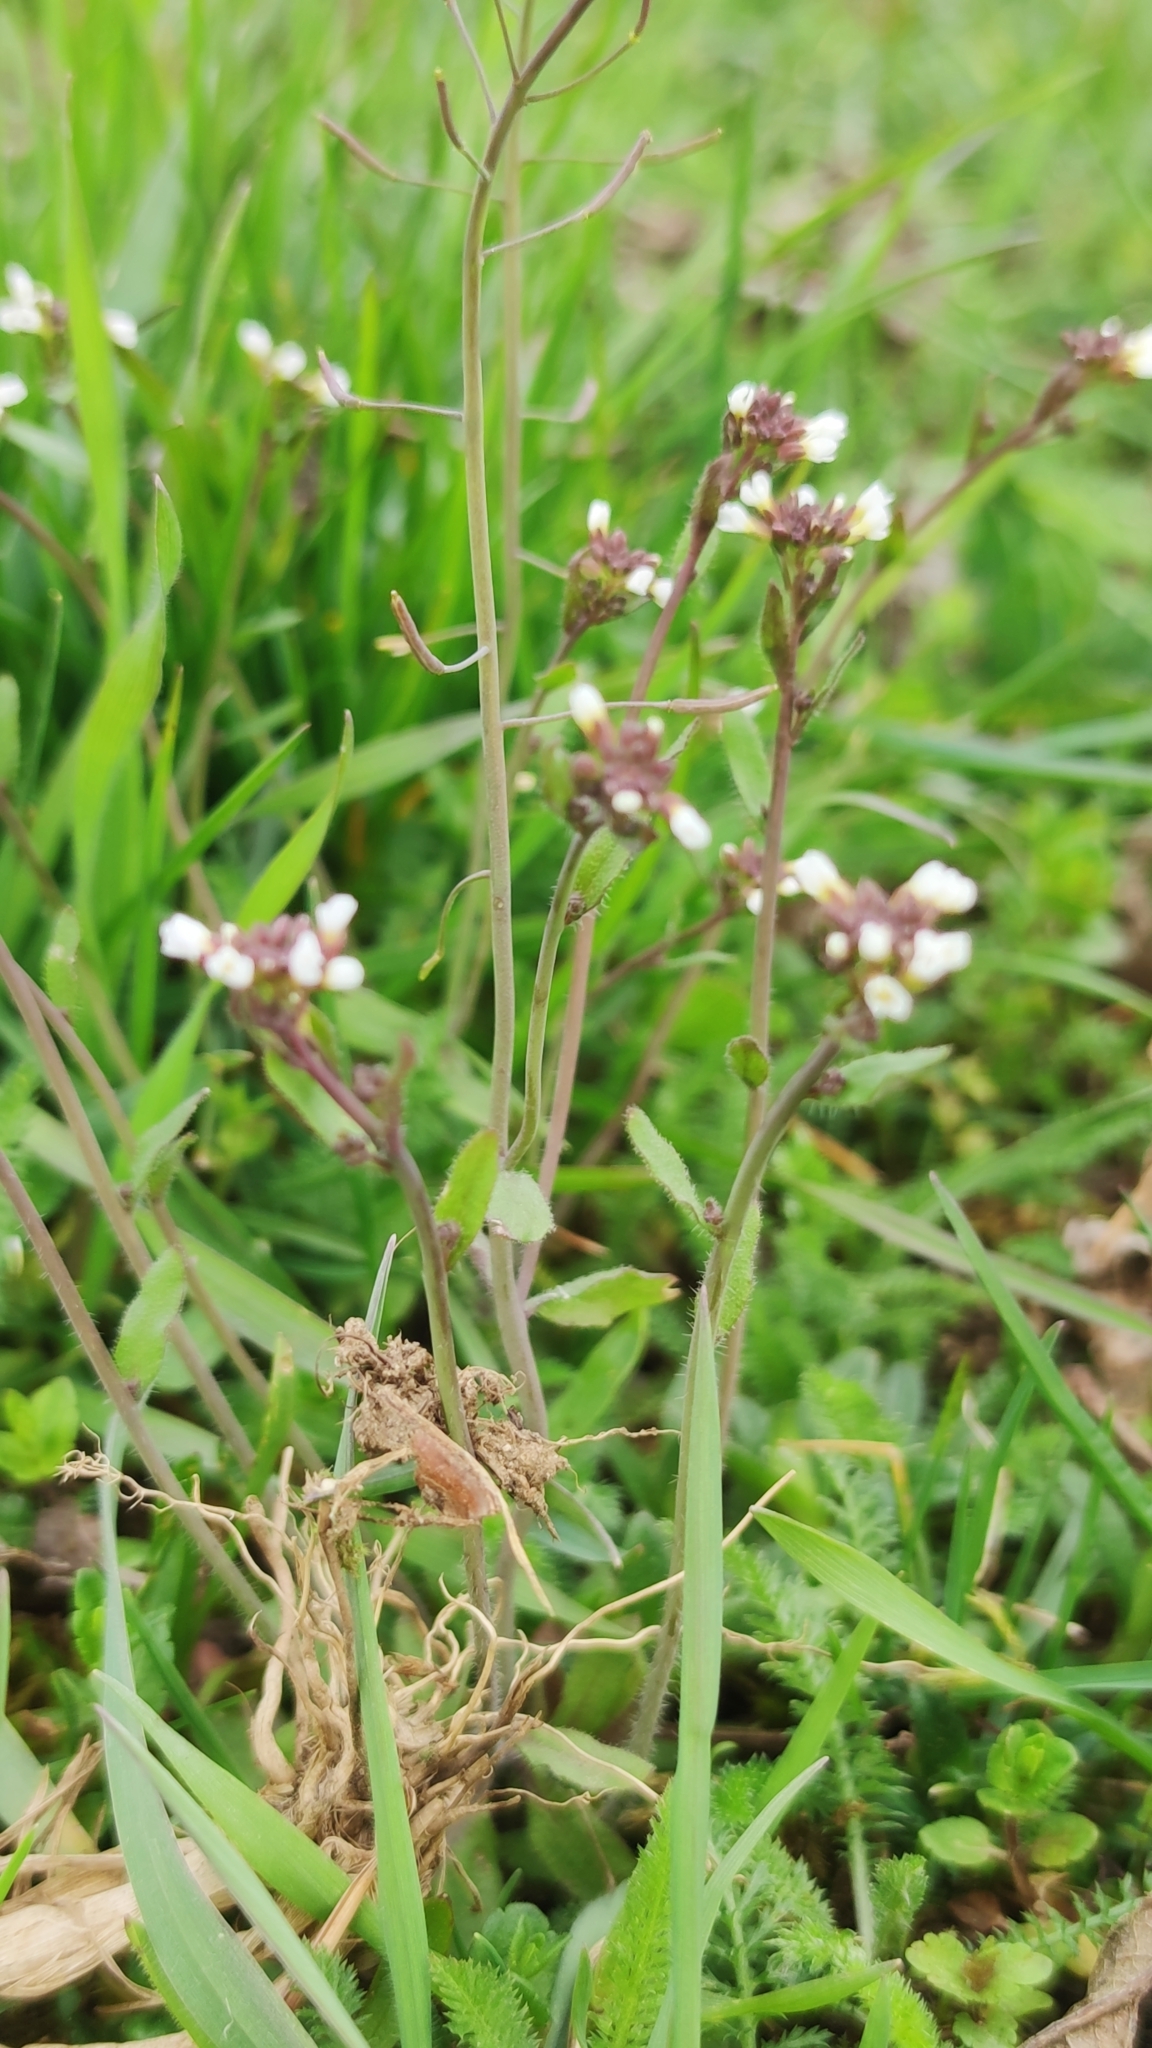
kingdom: Plantae
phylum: Tracheophyta
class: Magnoliopsida
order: Brassicales
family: Brassicaceae
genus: Capsella
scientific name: Capsella bursa-pastoris
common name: Shepherd's purse
